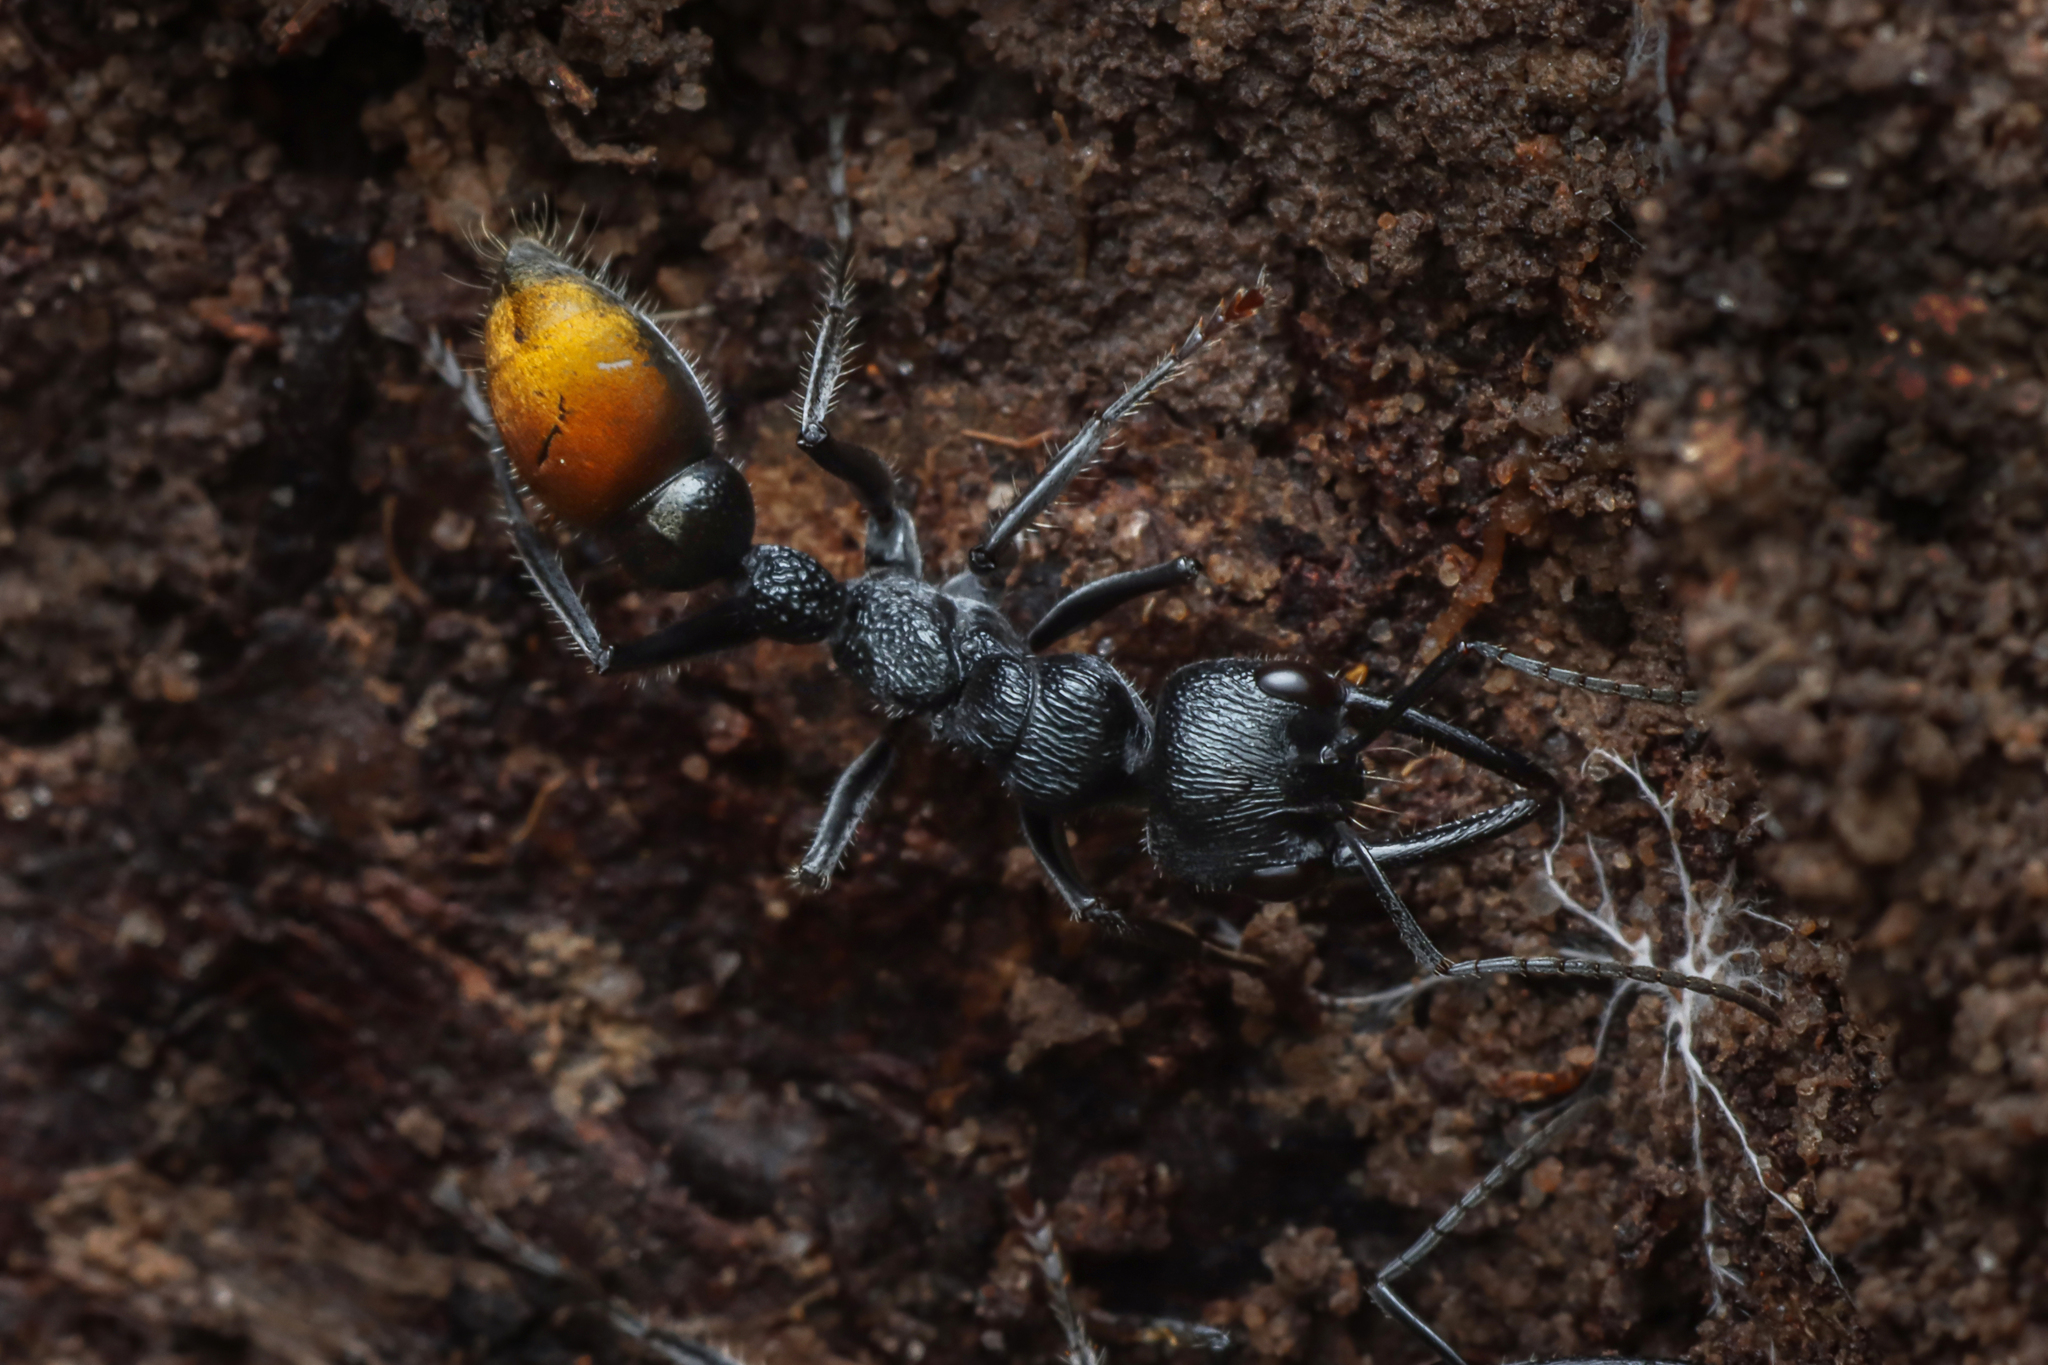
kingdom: Animalia
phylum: Arthropoda
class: Insecta
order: Hymenoptera
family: Formicidae
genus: Myrmecia
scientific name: Myrmecia mandibularis
